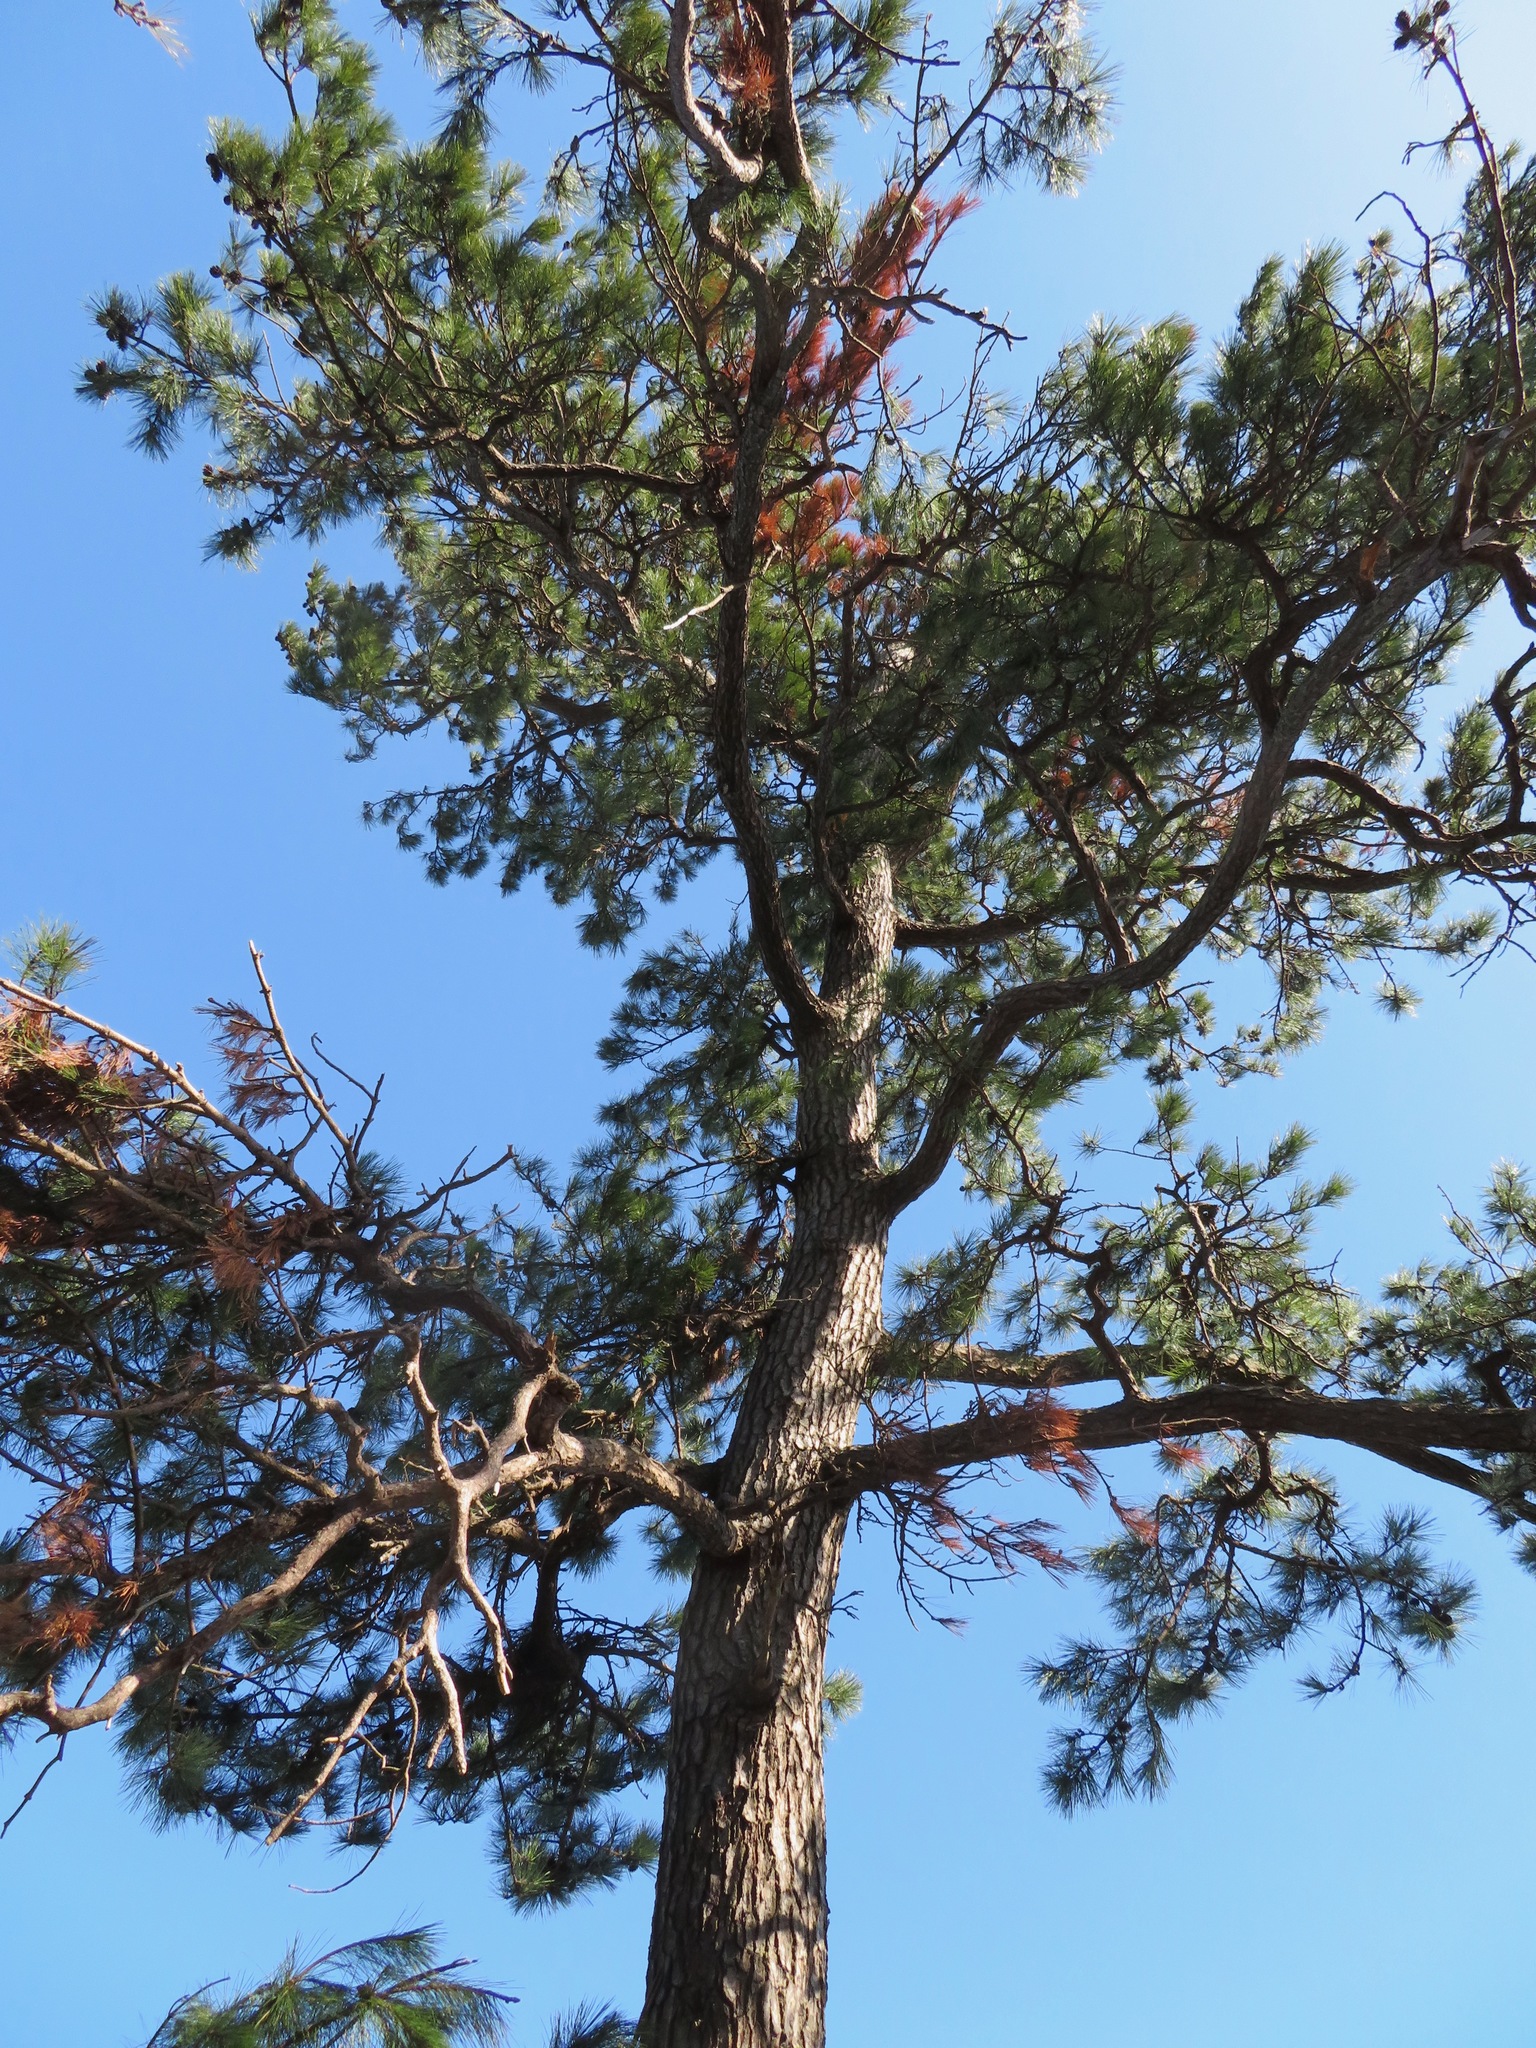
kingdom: Plantae
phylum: Tracheophyta
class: Pinopsida
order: Pinales
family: Pinaceae
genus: Pinus
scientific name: Pinus thunbergii
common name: Japanese black pine
